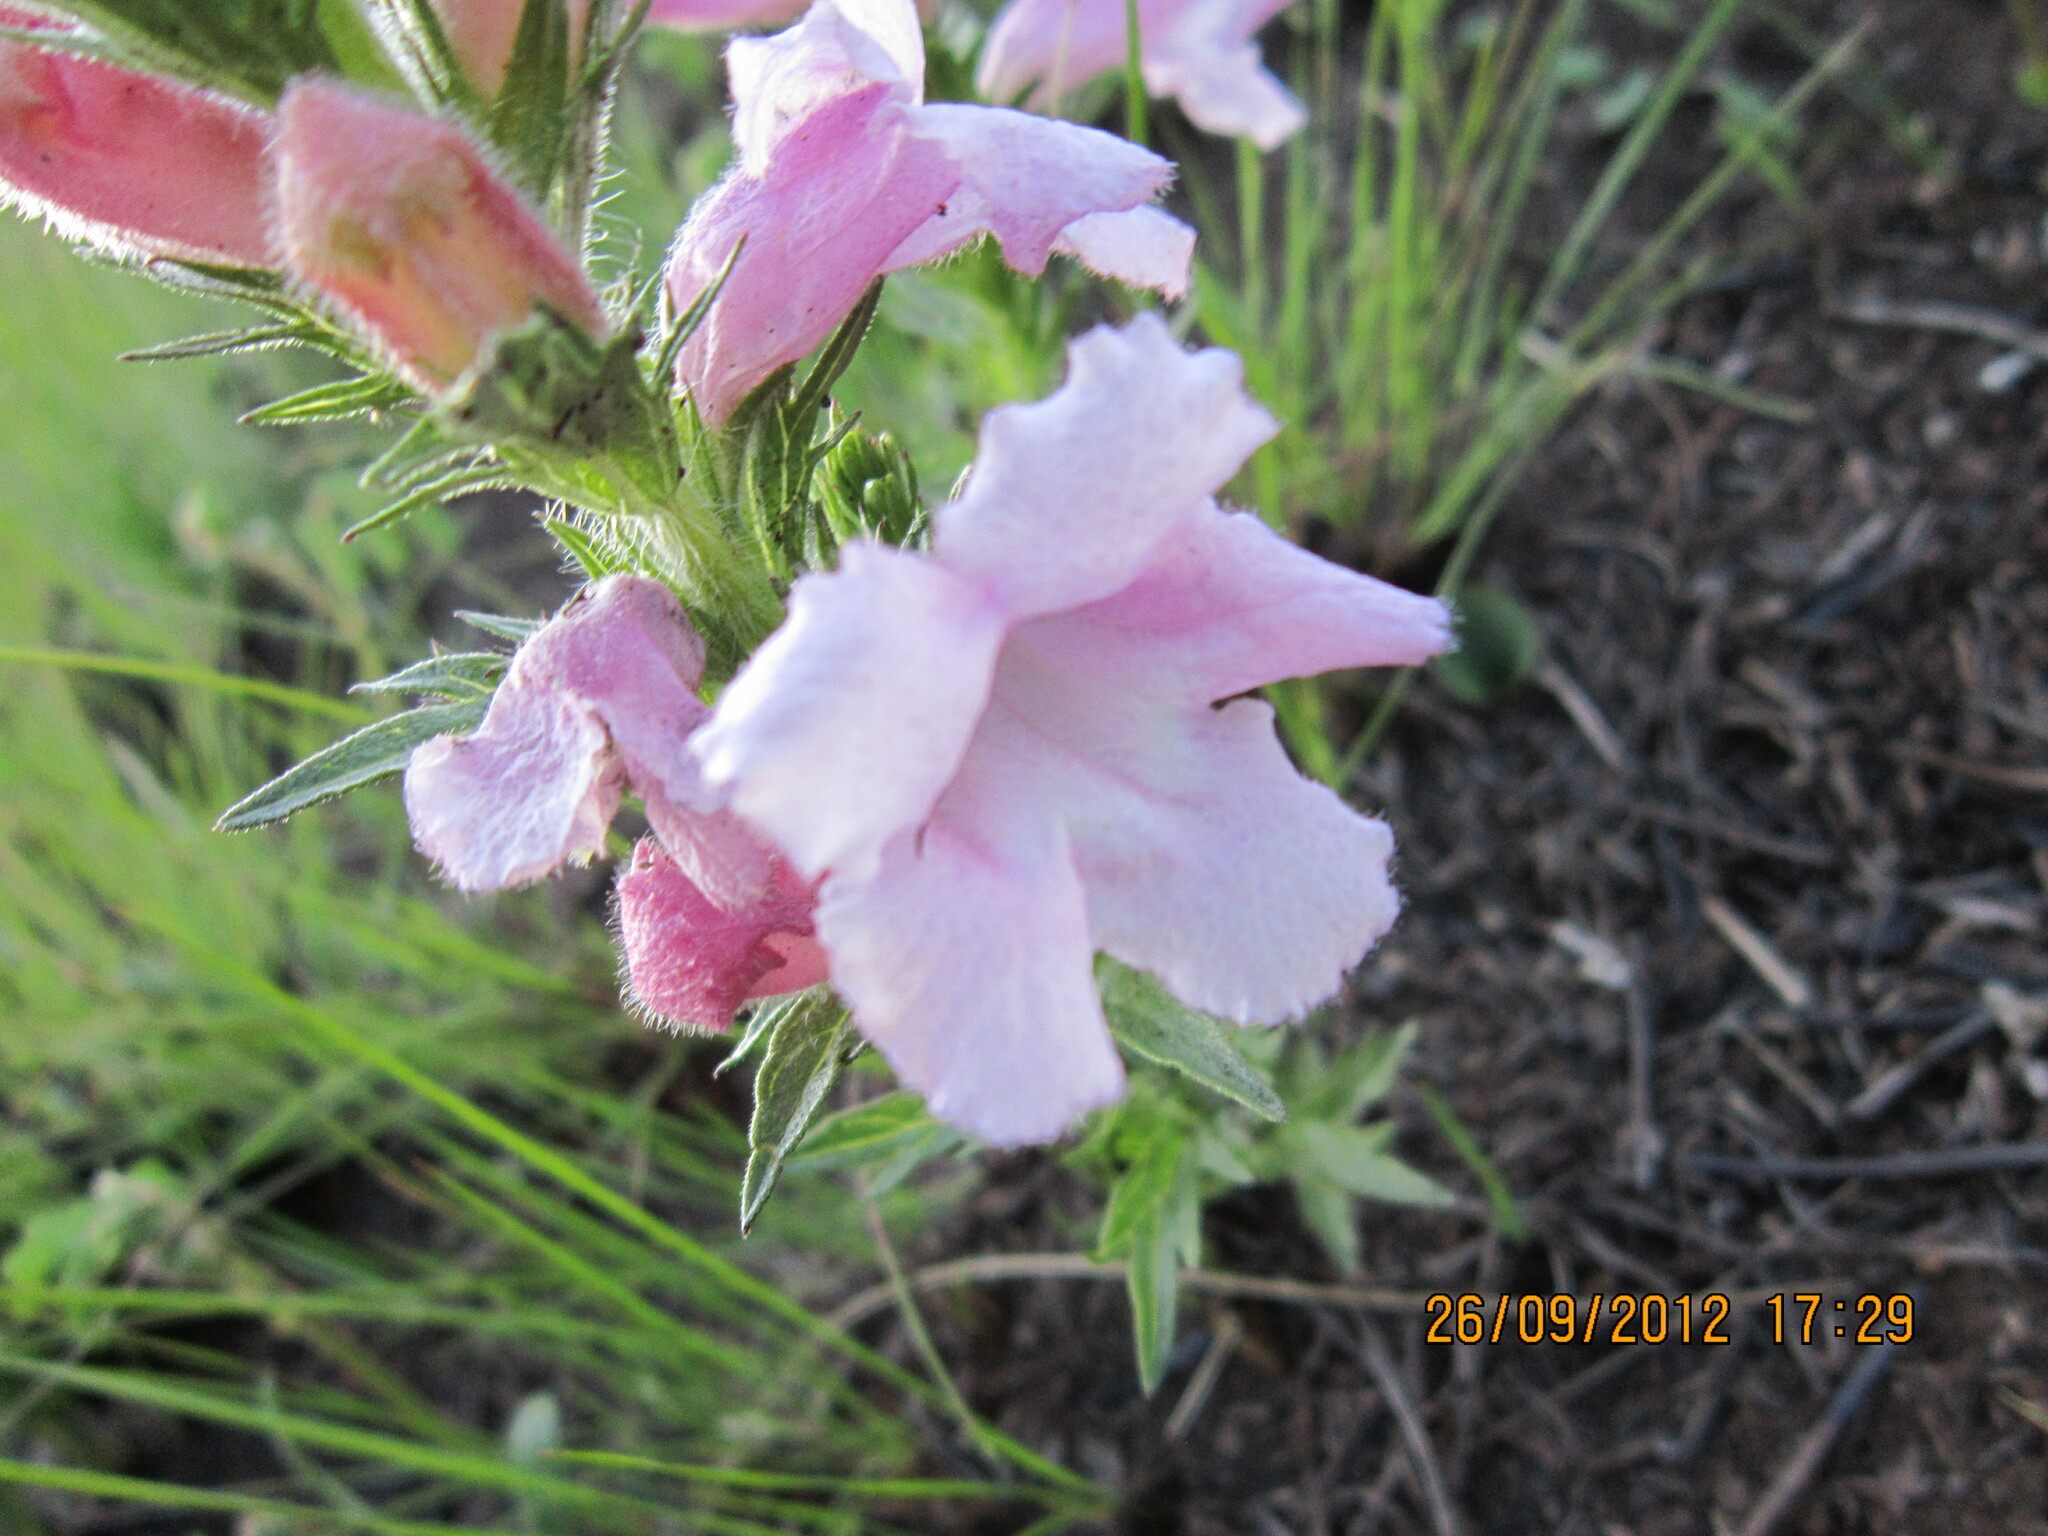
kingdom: Plantae
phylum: Tracheophyta
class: Magnoliopsida
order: Lamiales
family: Orobanchaceae
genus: Graderia
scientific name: Graderia scabra
